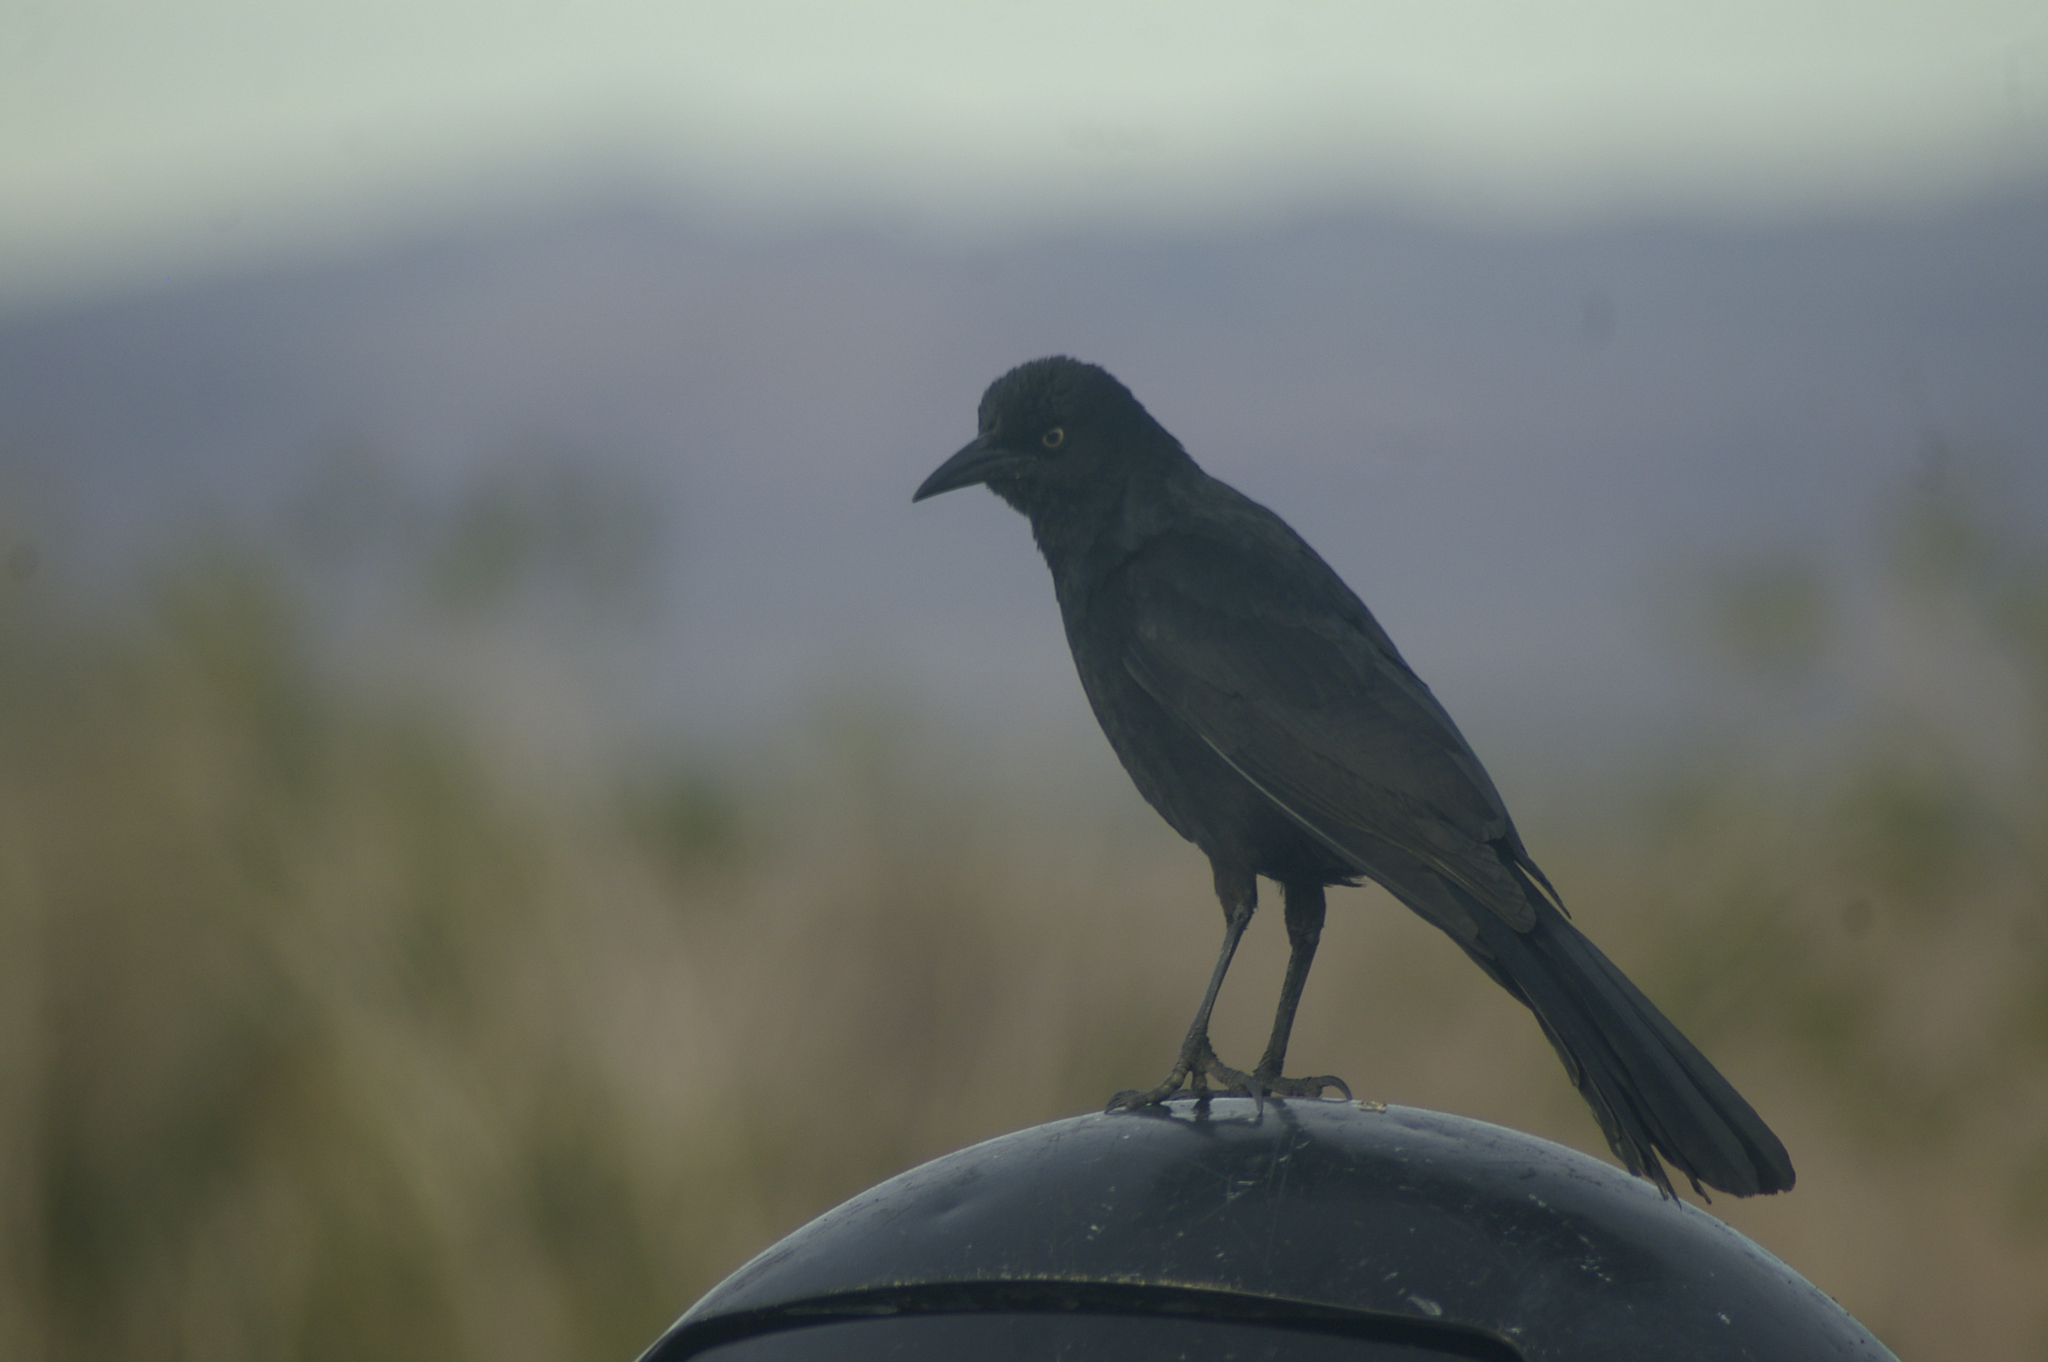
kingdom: Animalia
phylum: Chordata
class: Aves
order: Passeriformes
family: Icteridae
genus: Quiscalus
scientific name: Quiscalus mexicanus
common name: Great-tailed grackle
